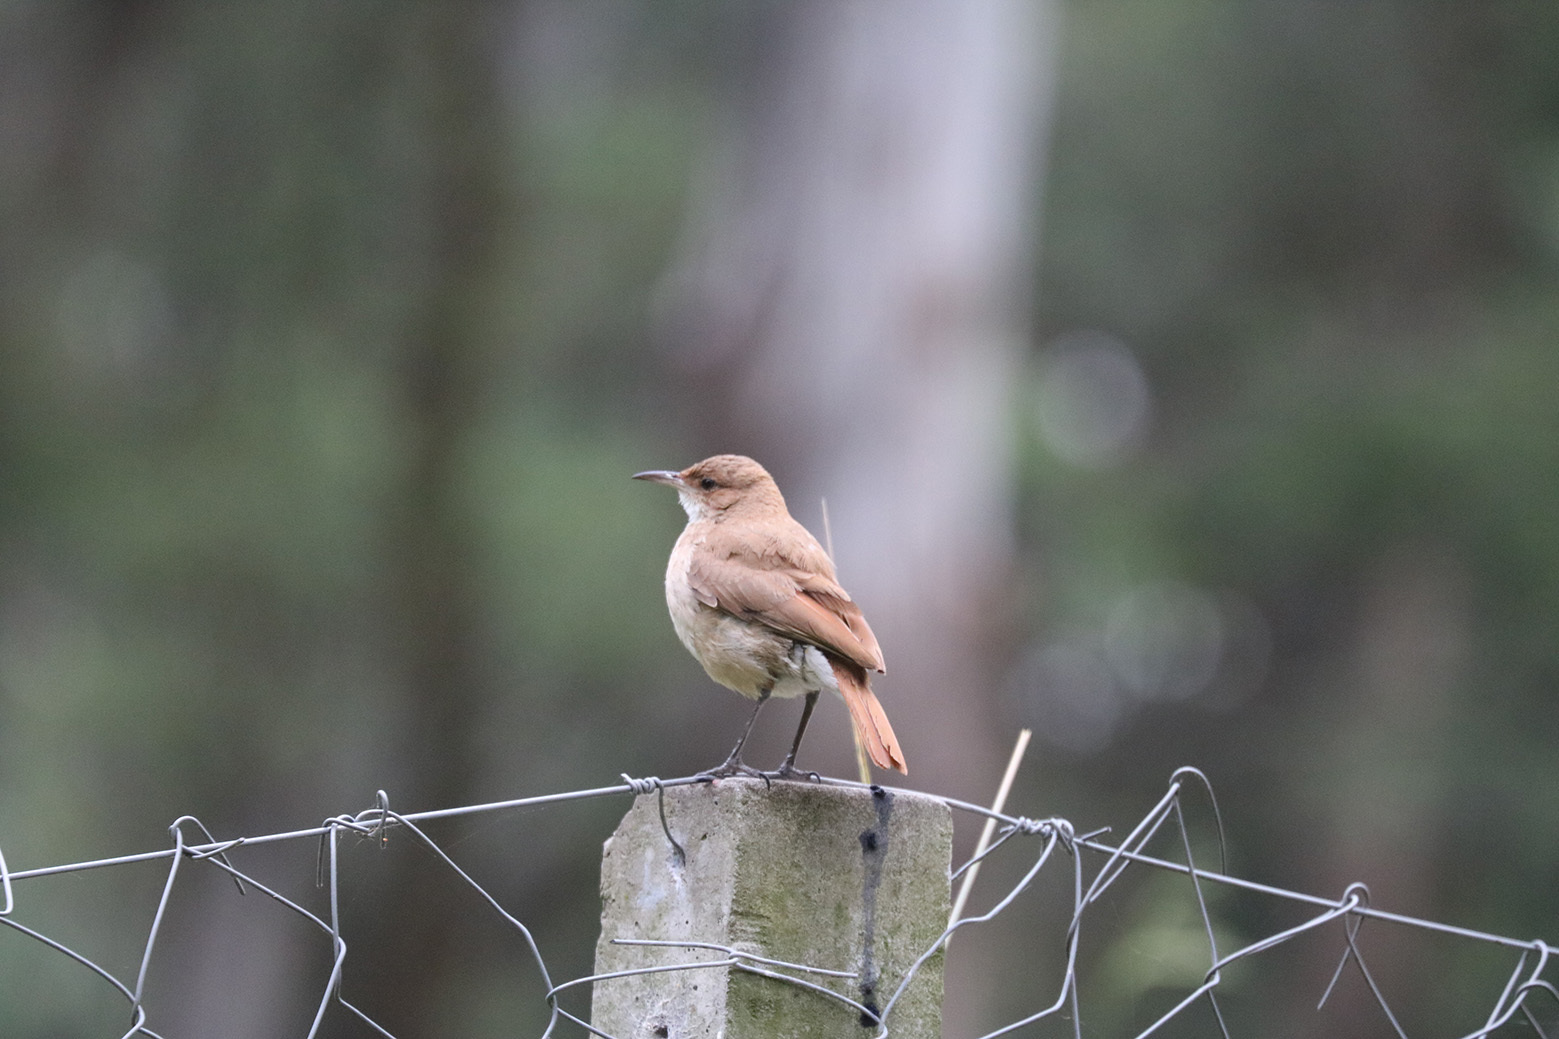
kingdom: Animalia
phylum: Chordata
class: Aves
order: Passeriformes
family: Furnariidae
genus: Furnarius
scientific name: Furnarius rufus
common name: Rufous hornero
